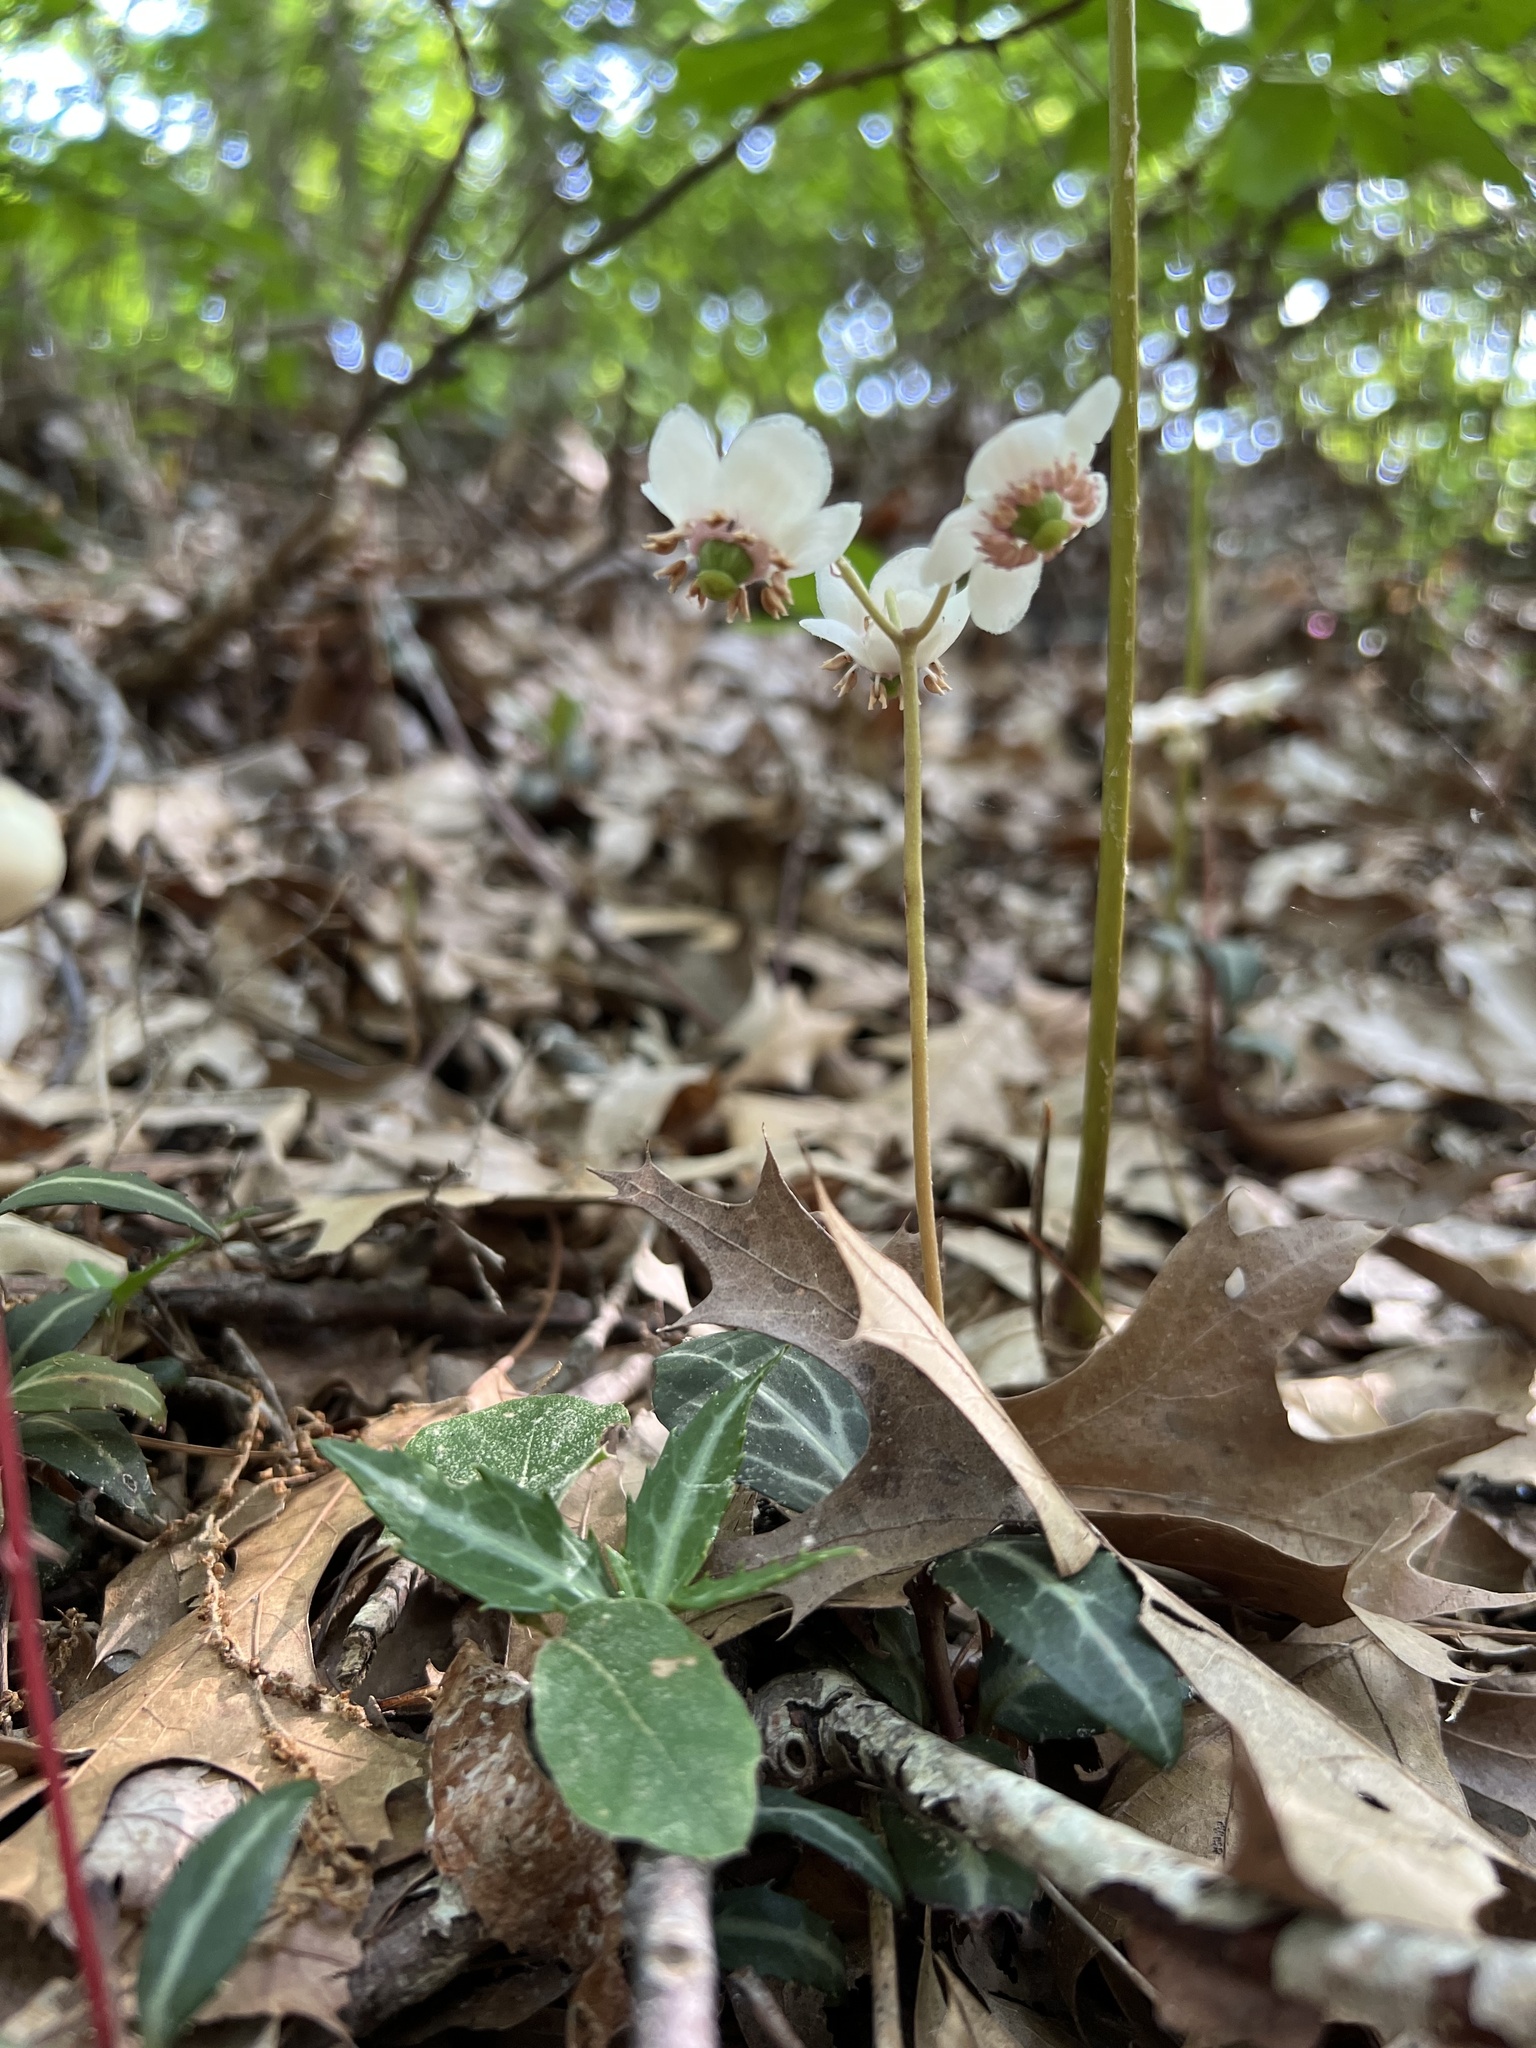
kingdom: Plantae
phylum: Tracheophyta
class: Magnoliopsida
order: Ericales
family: Ericaceae
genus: Chimaphila
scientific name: Chimaphila maculata
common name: Spotted pipsissewa
